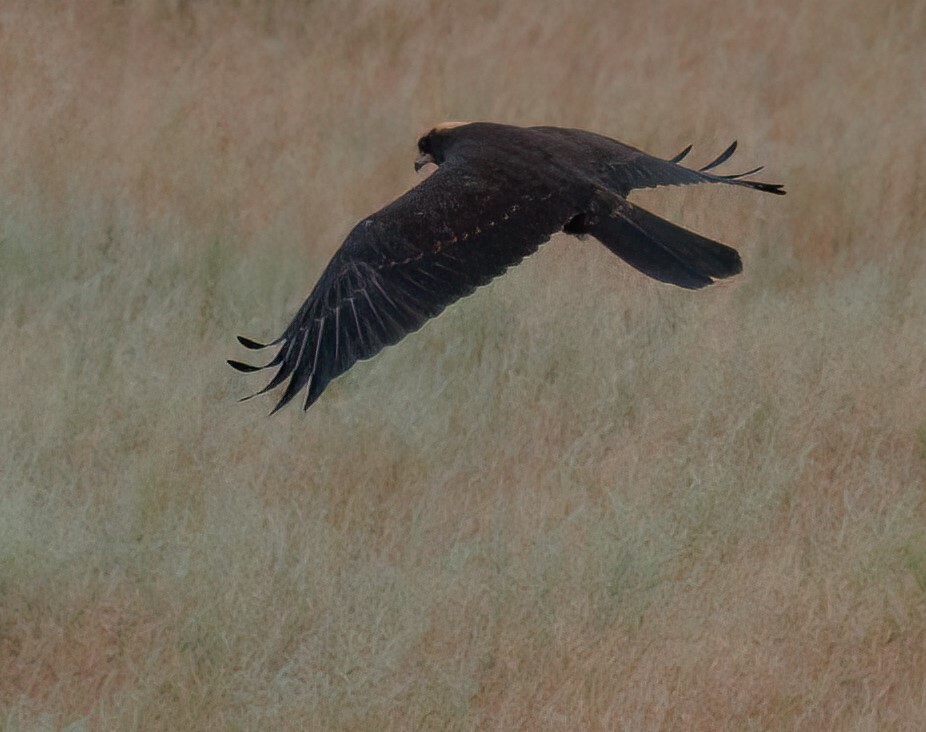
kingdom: Animalia
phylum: Chordata
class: Aves
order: Accipitriformes
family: Accipitridae
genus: Circus
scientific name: Circus aeruginosus
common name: Western marsh harrier
